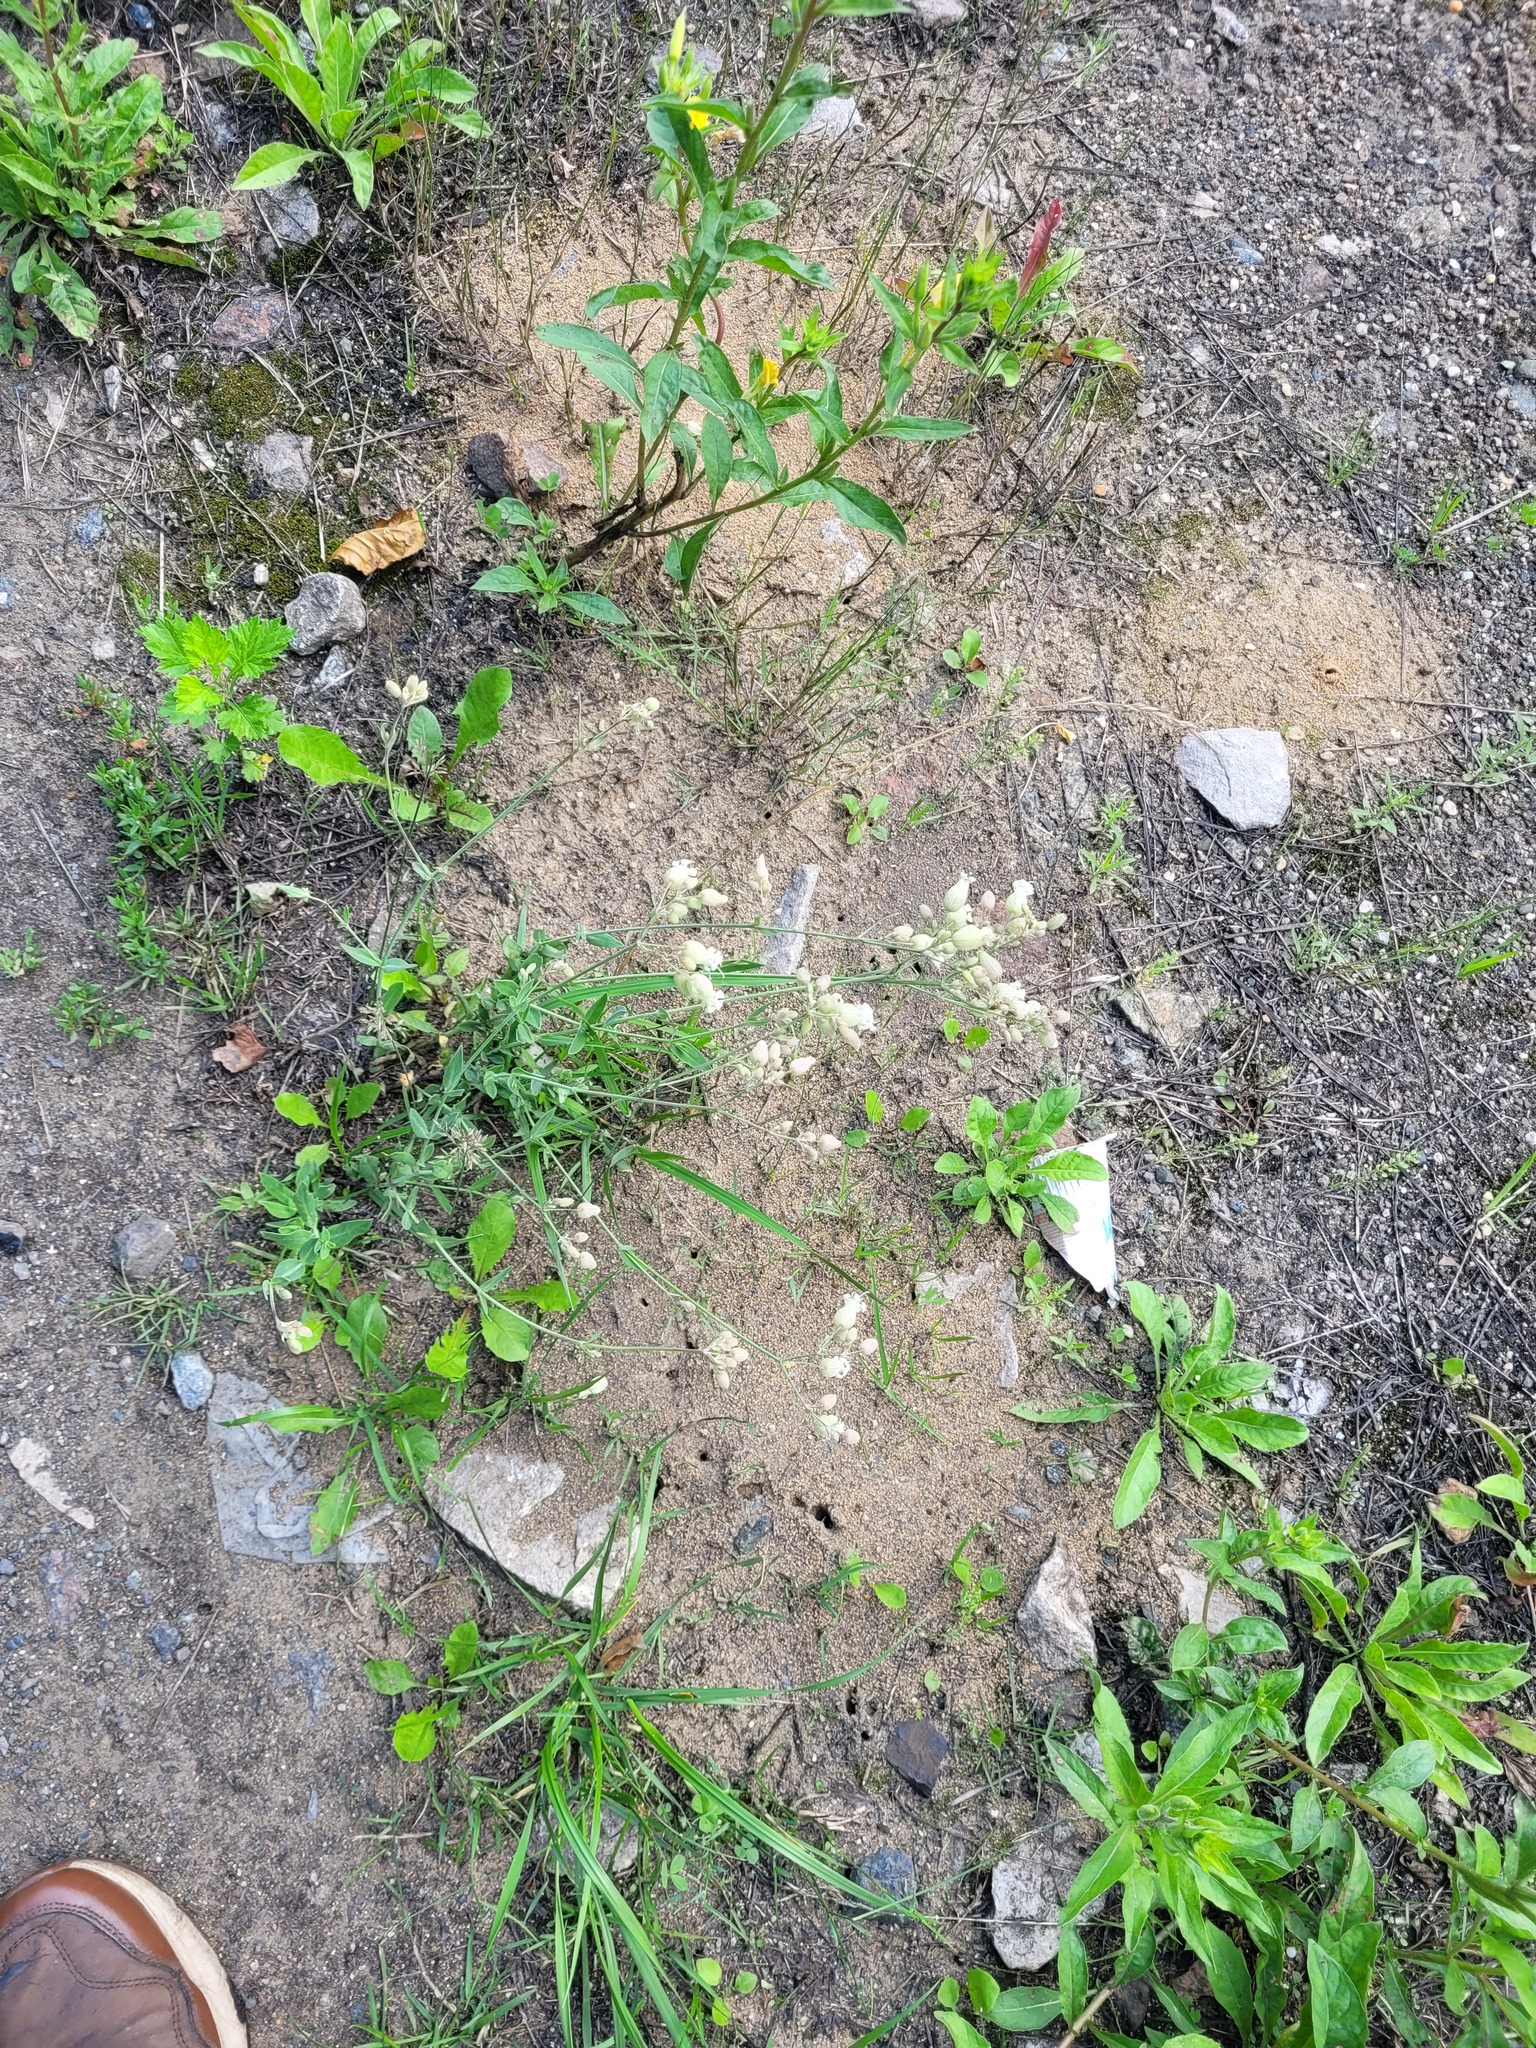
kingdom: Plantae
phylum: Tracheophyta
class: Magnoliopsida
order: Caryophyllales
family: Caryophyllaceae
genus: Silene
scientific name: Silene vulgaris
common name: Bladder campion
